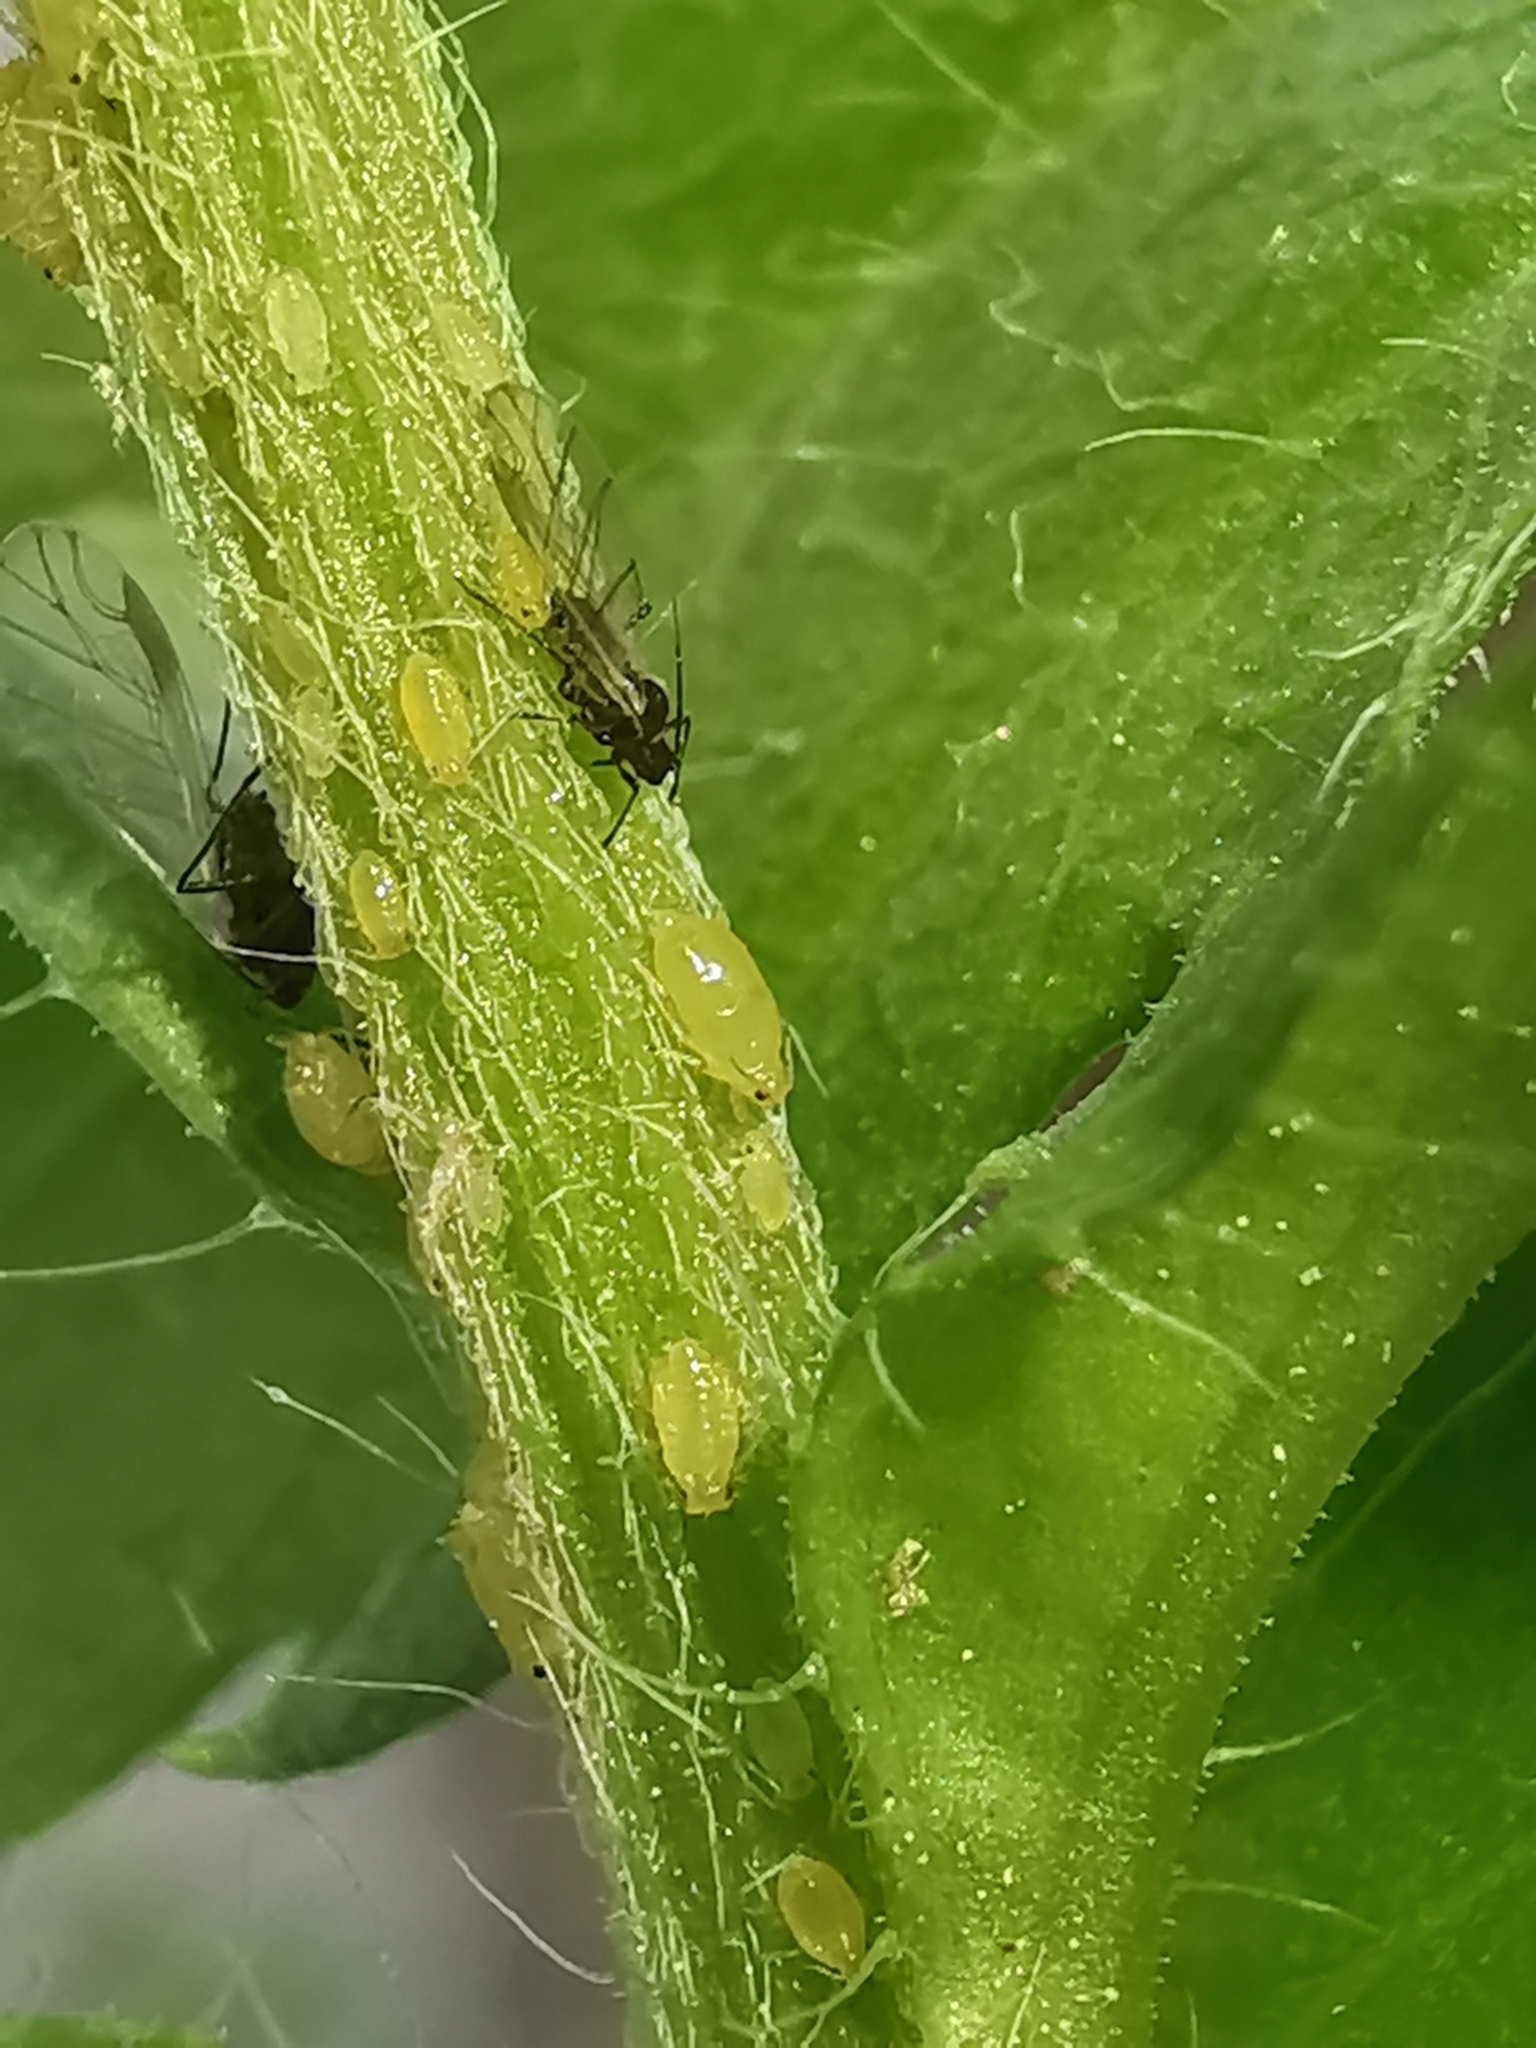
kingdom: Animalia
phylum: Arthropoda
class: Insecta
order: Hemiptera
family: Aphididae
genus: Myzus
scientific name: Myzus persicae
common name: Green peach aphid
